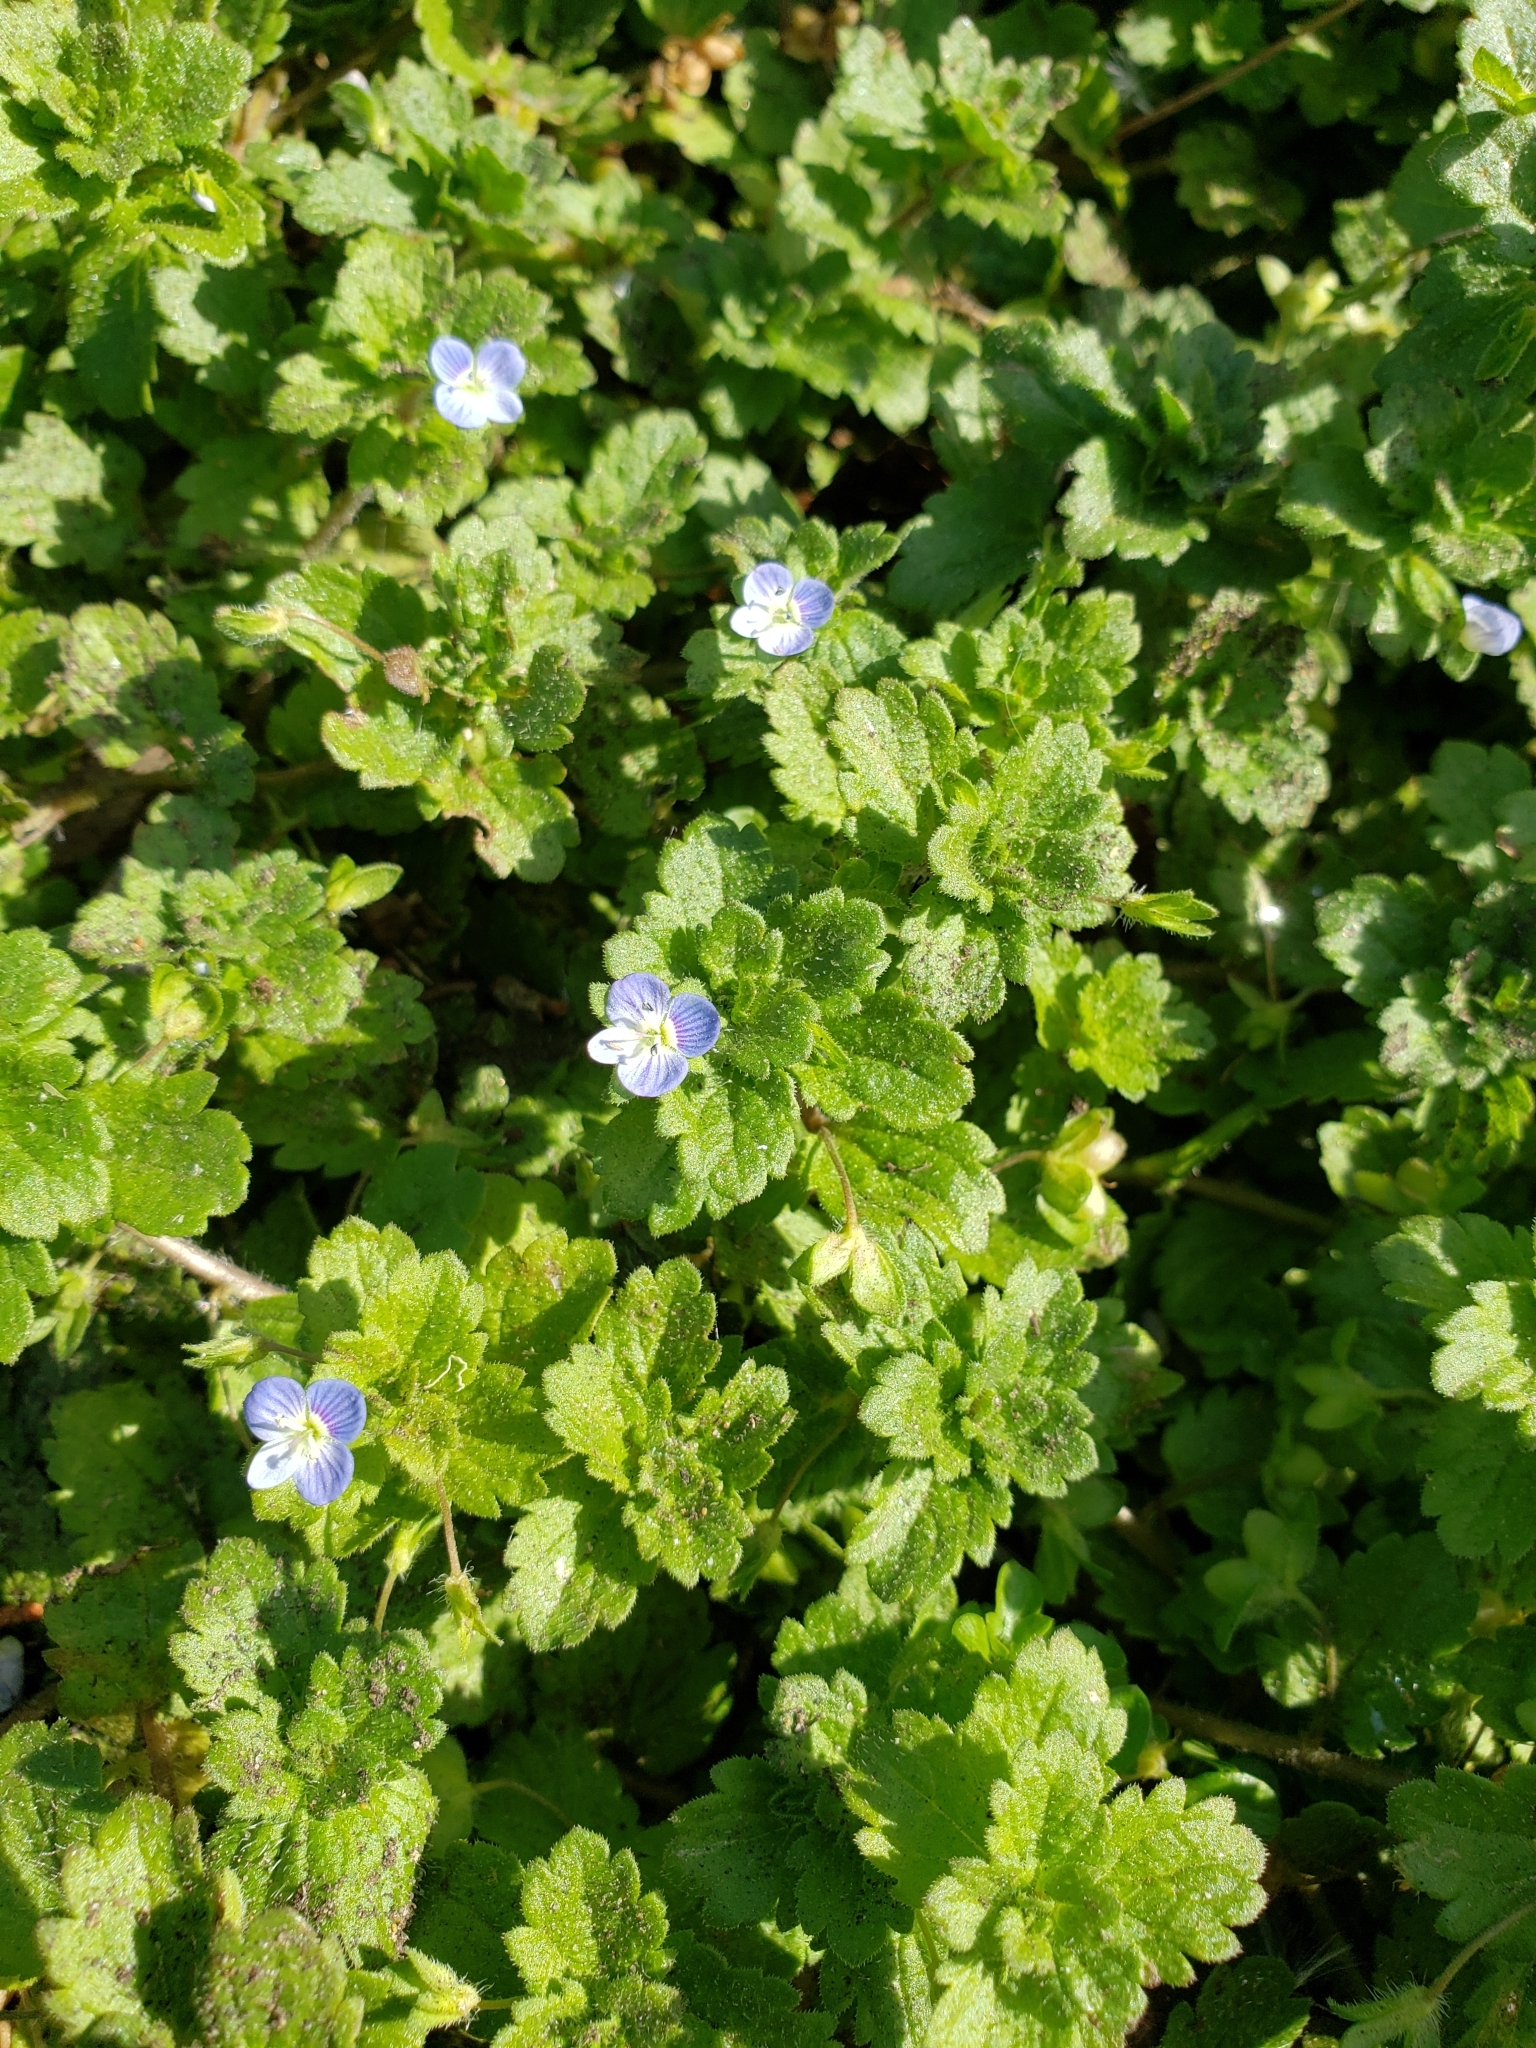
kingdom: Plantae
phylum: Tracheophyta
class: Magnoliopsida
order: Lamiales
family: Plantaginaceae
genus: Veronica
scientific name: Veronica persica
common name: Common field-speedwell
